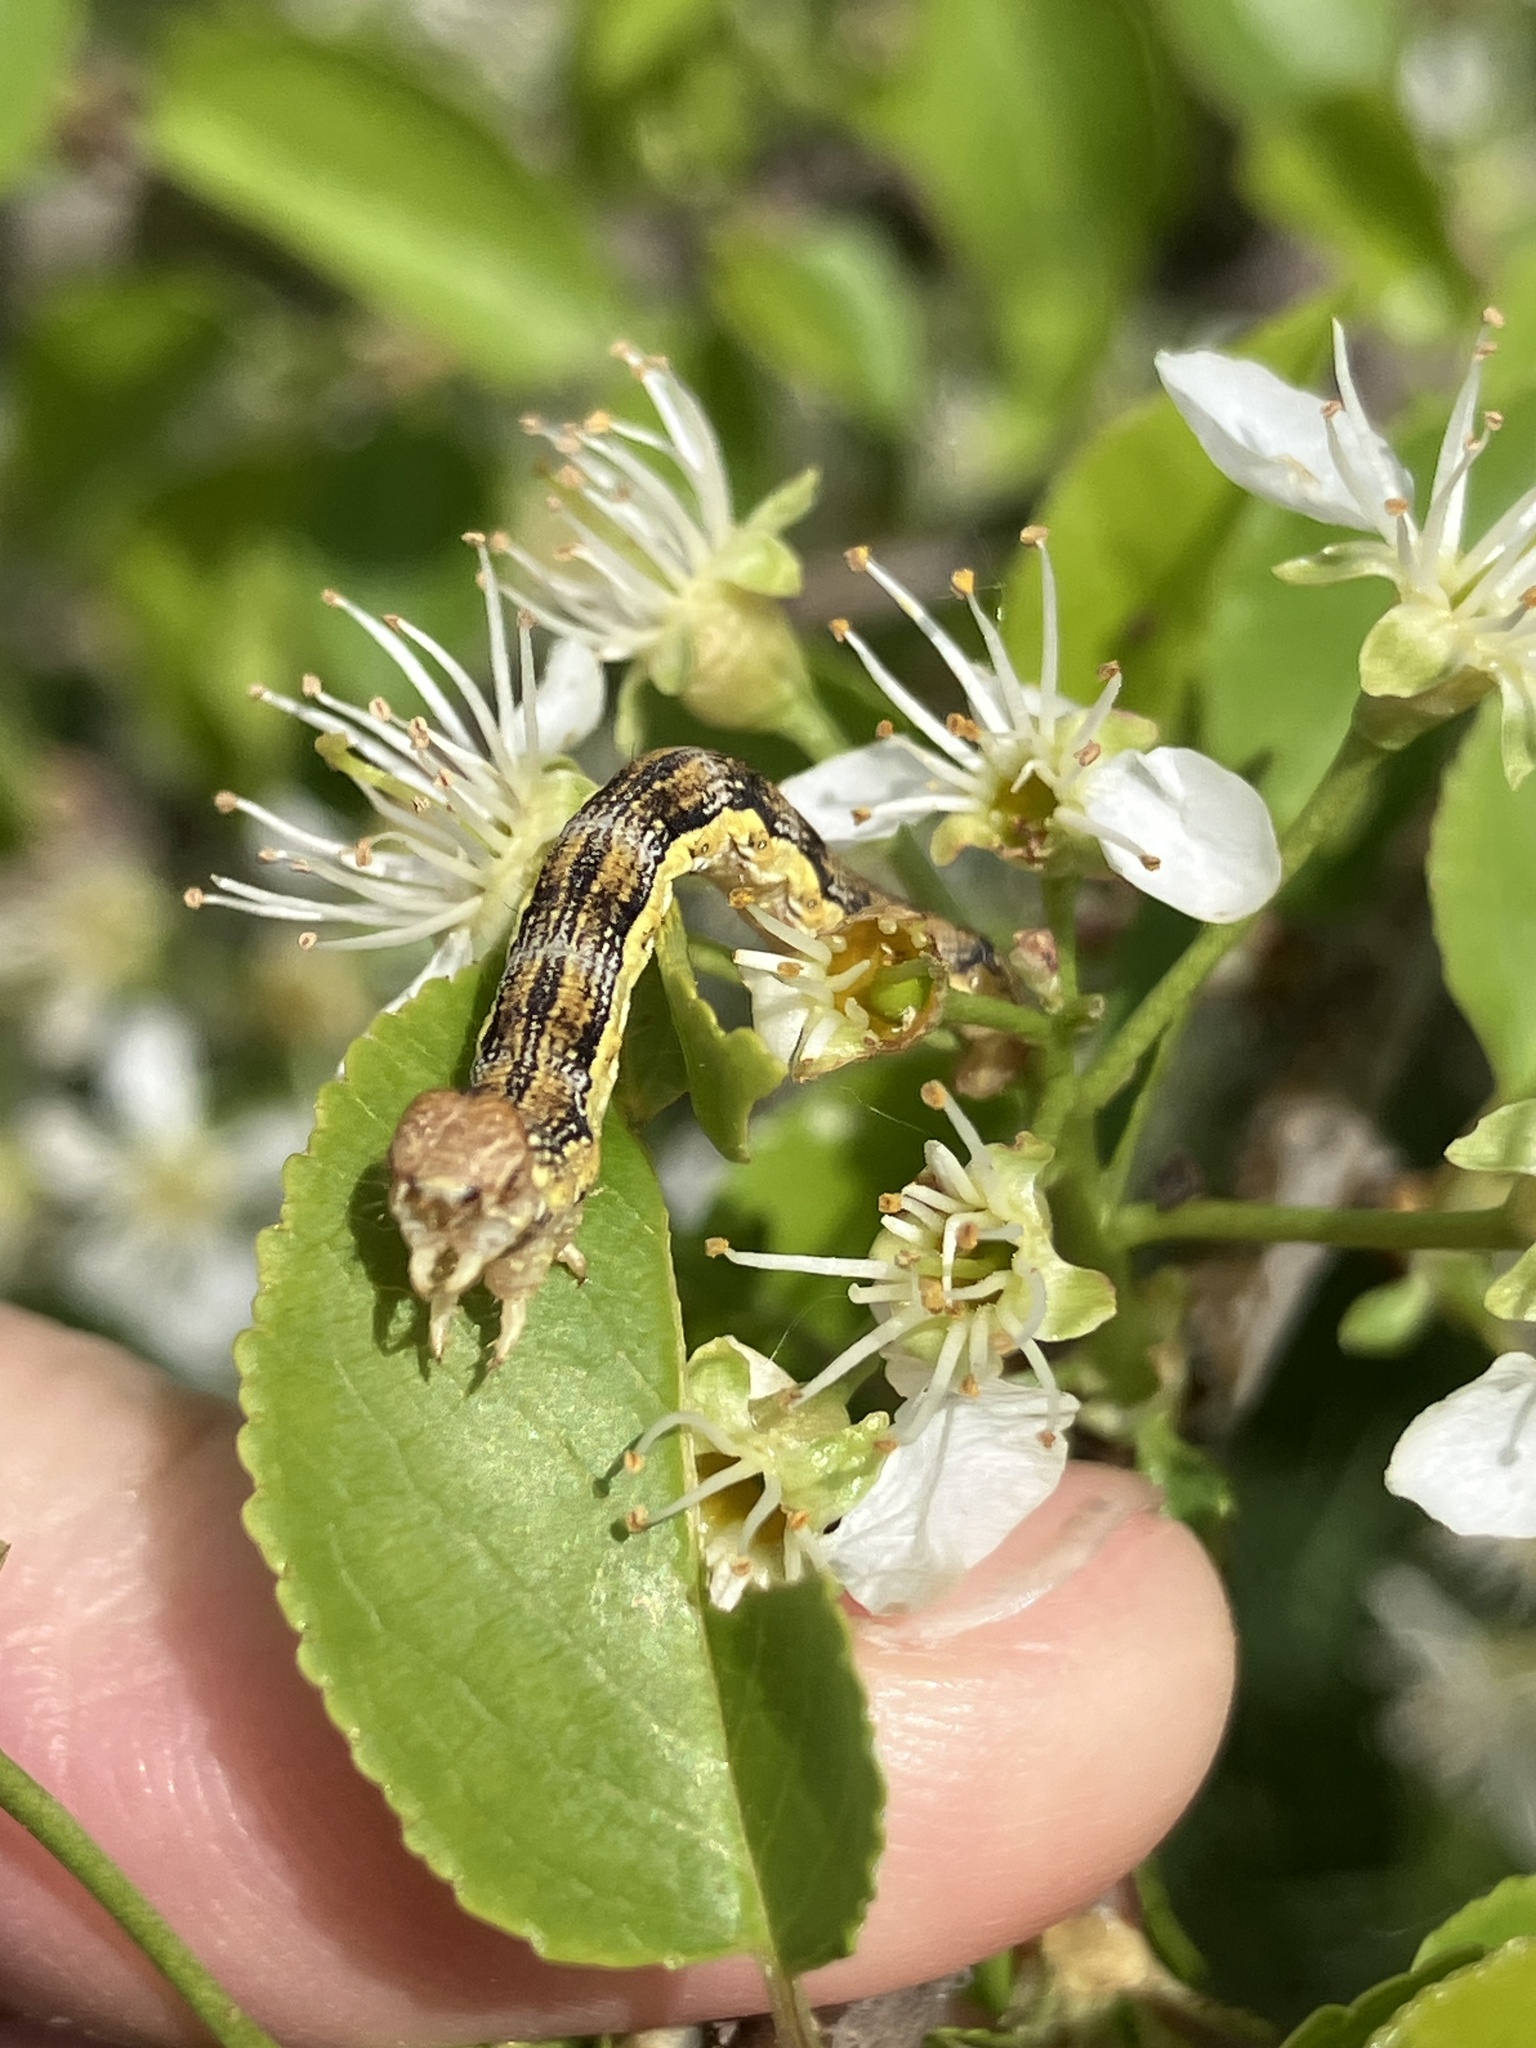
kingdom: Animalia
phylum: Arthropoda
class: Insecta
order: Lepidoptera
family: Geometridae
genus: Erannis
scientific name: Erannis defoliaria
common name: Mottled umber
